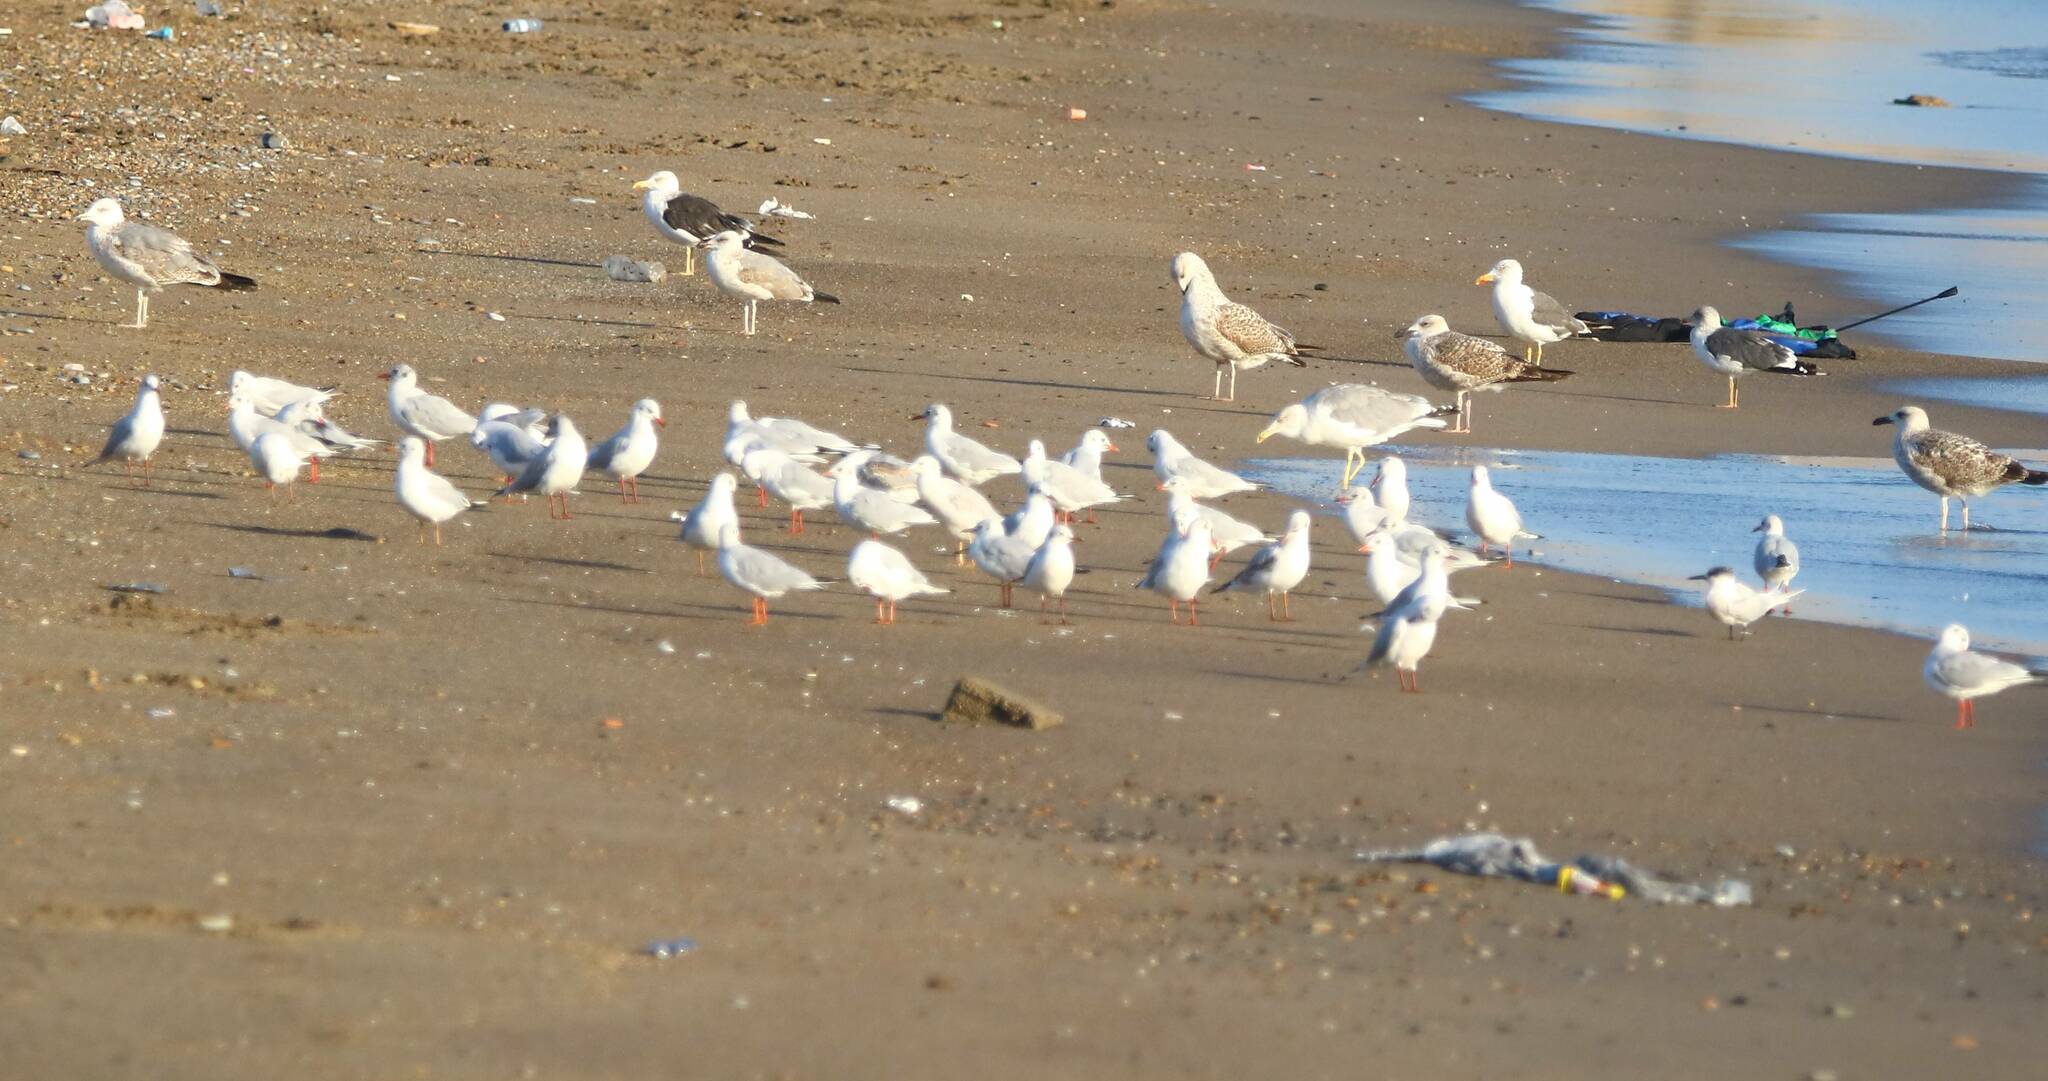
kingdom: Animalia
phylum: Chordata
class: Aves
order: Charadriiformes
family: Laridae
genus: Chroicocephalus
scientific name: Chroicocephalus ridibundus
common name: Black-headed gull
